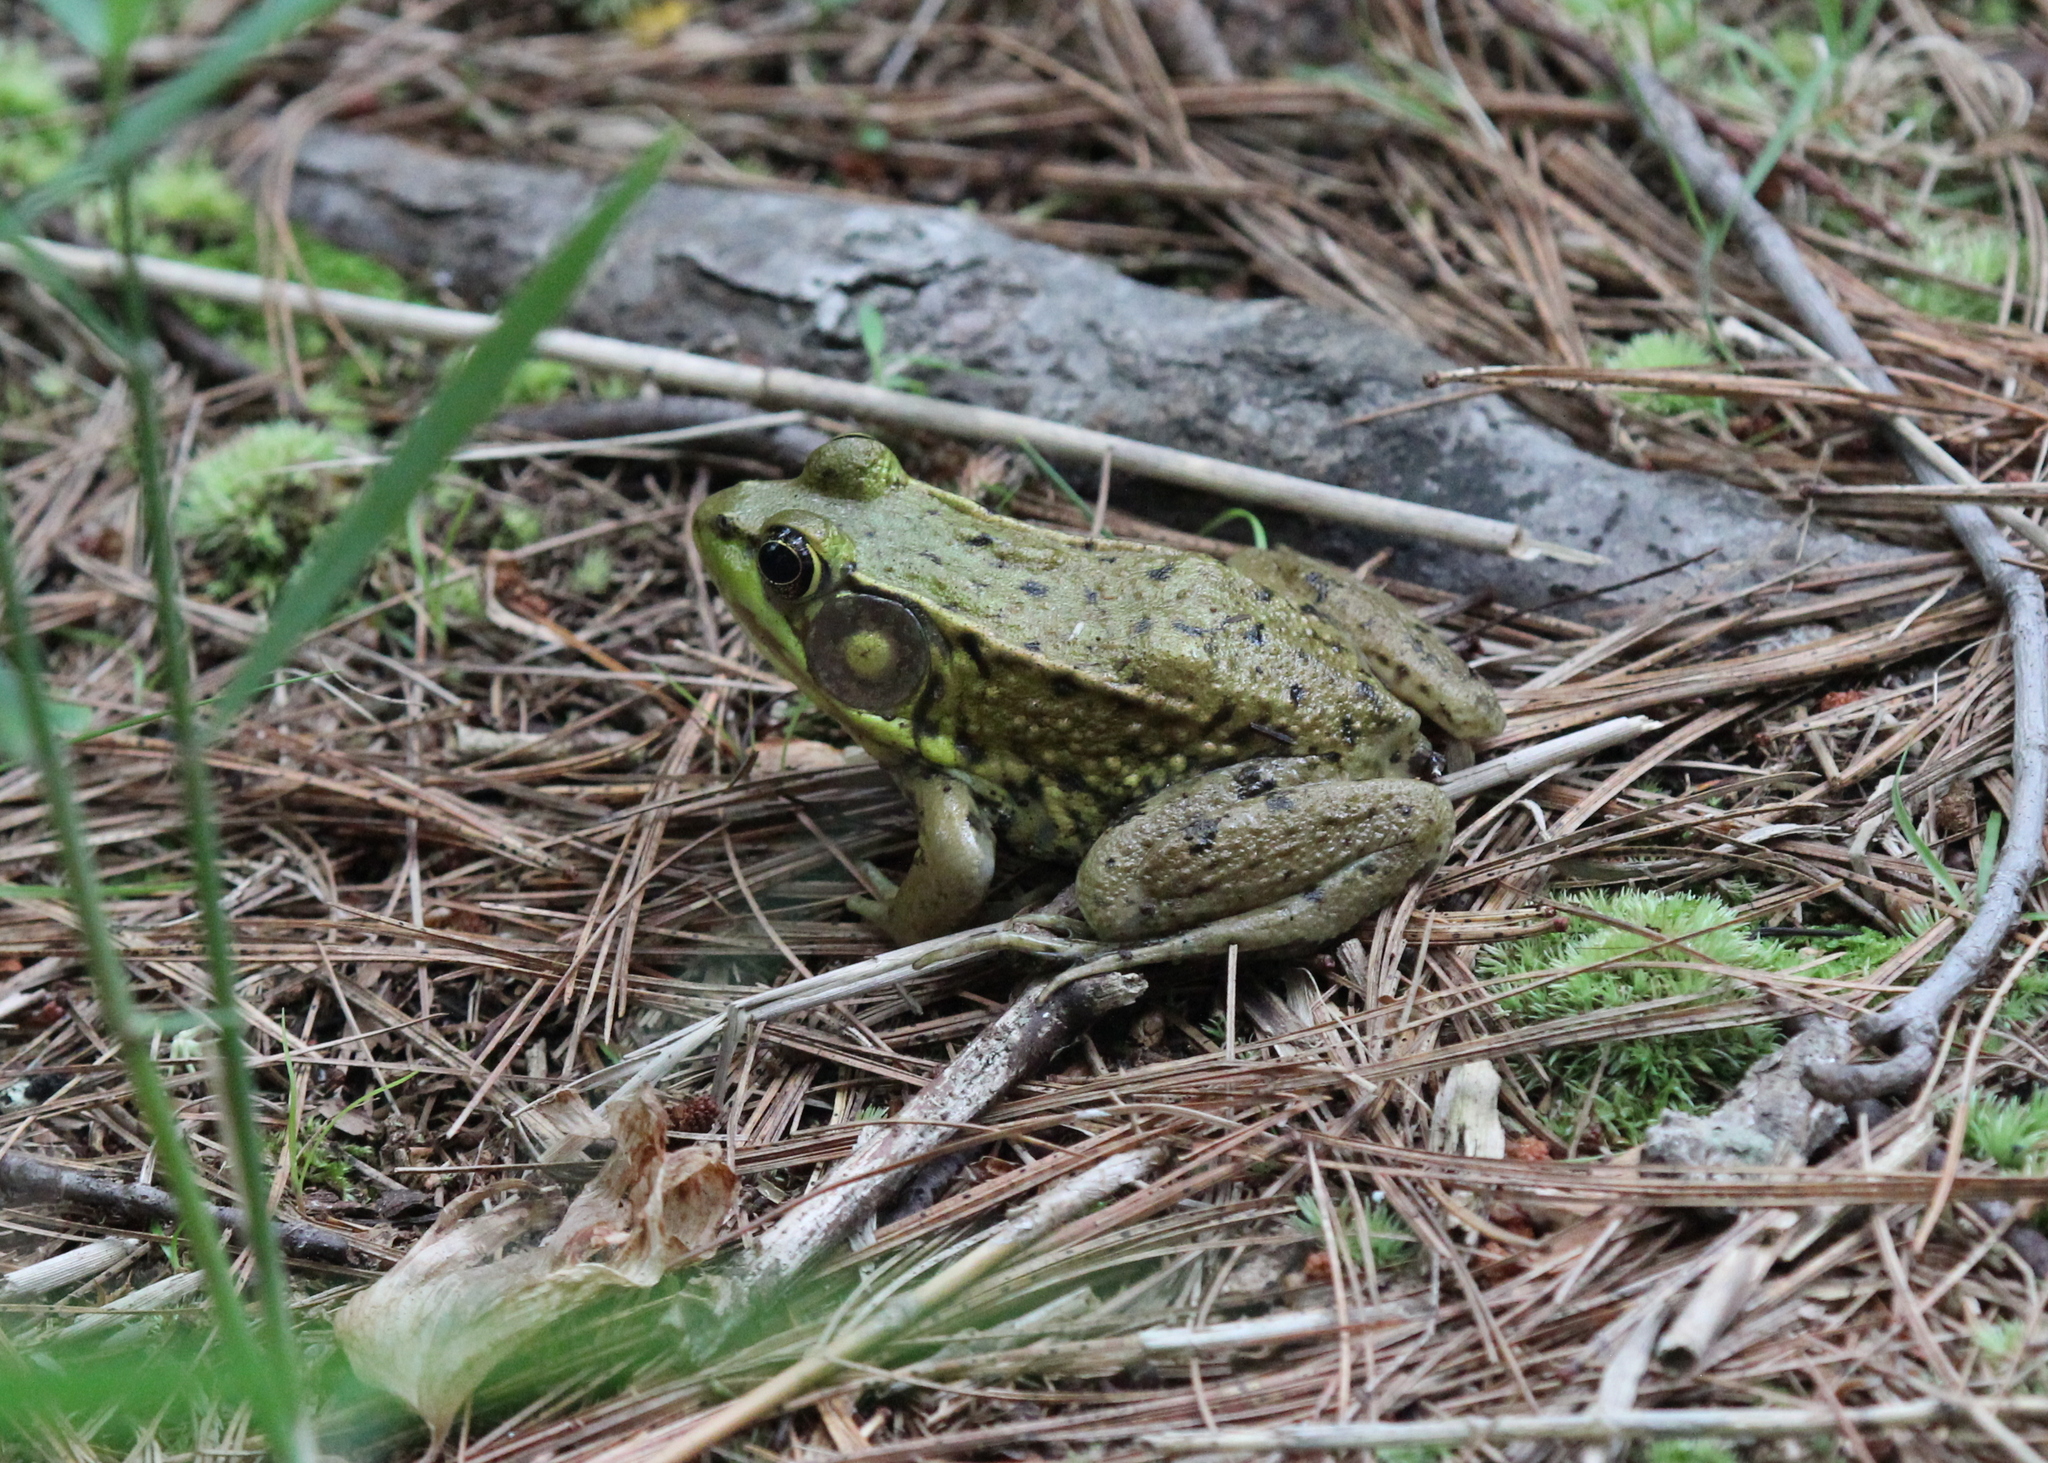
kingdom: Animalia
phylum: Chordata
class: Amphibia
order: Anura
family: Ranidae
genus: Lithobates
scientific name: Lithobates clamitans
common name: Green frog
